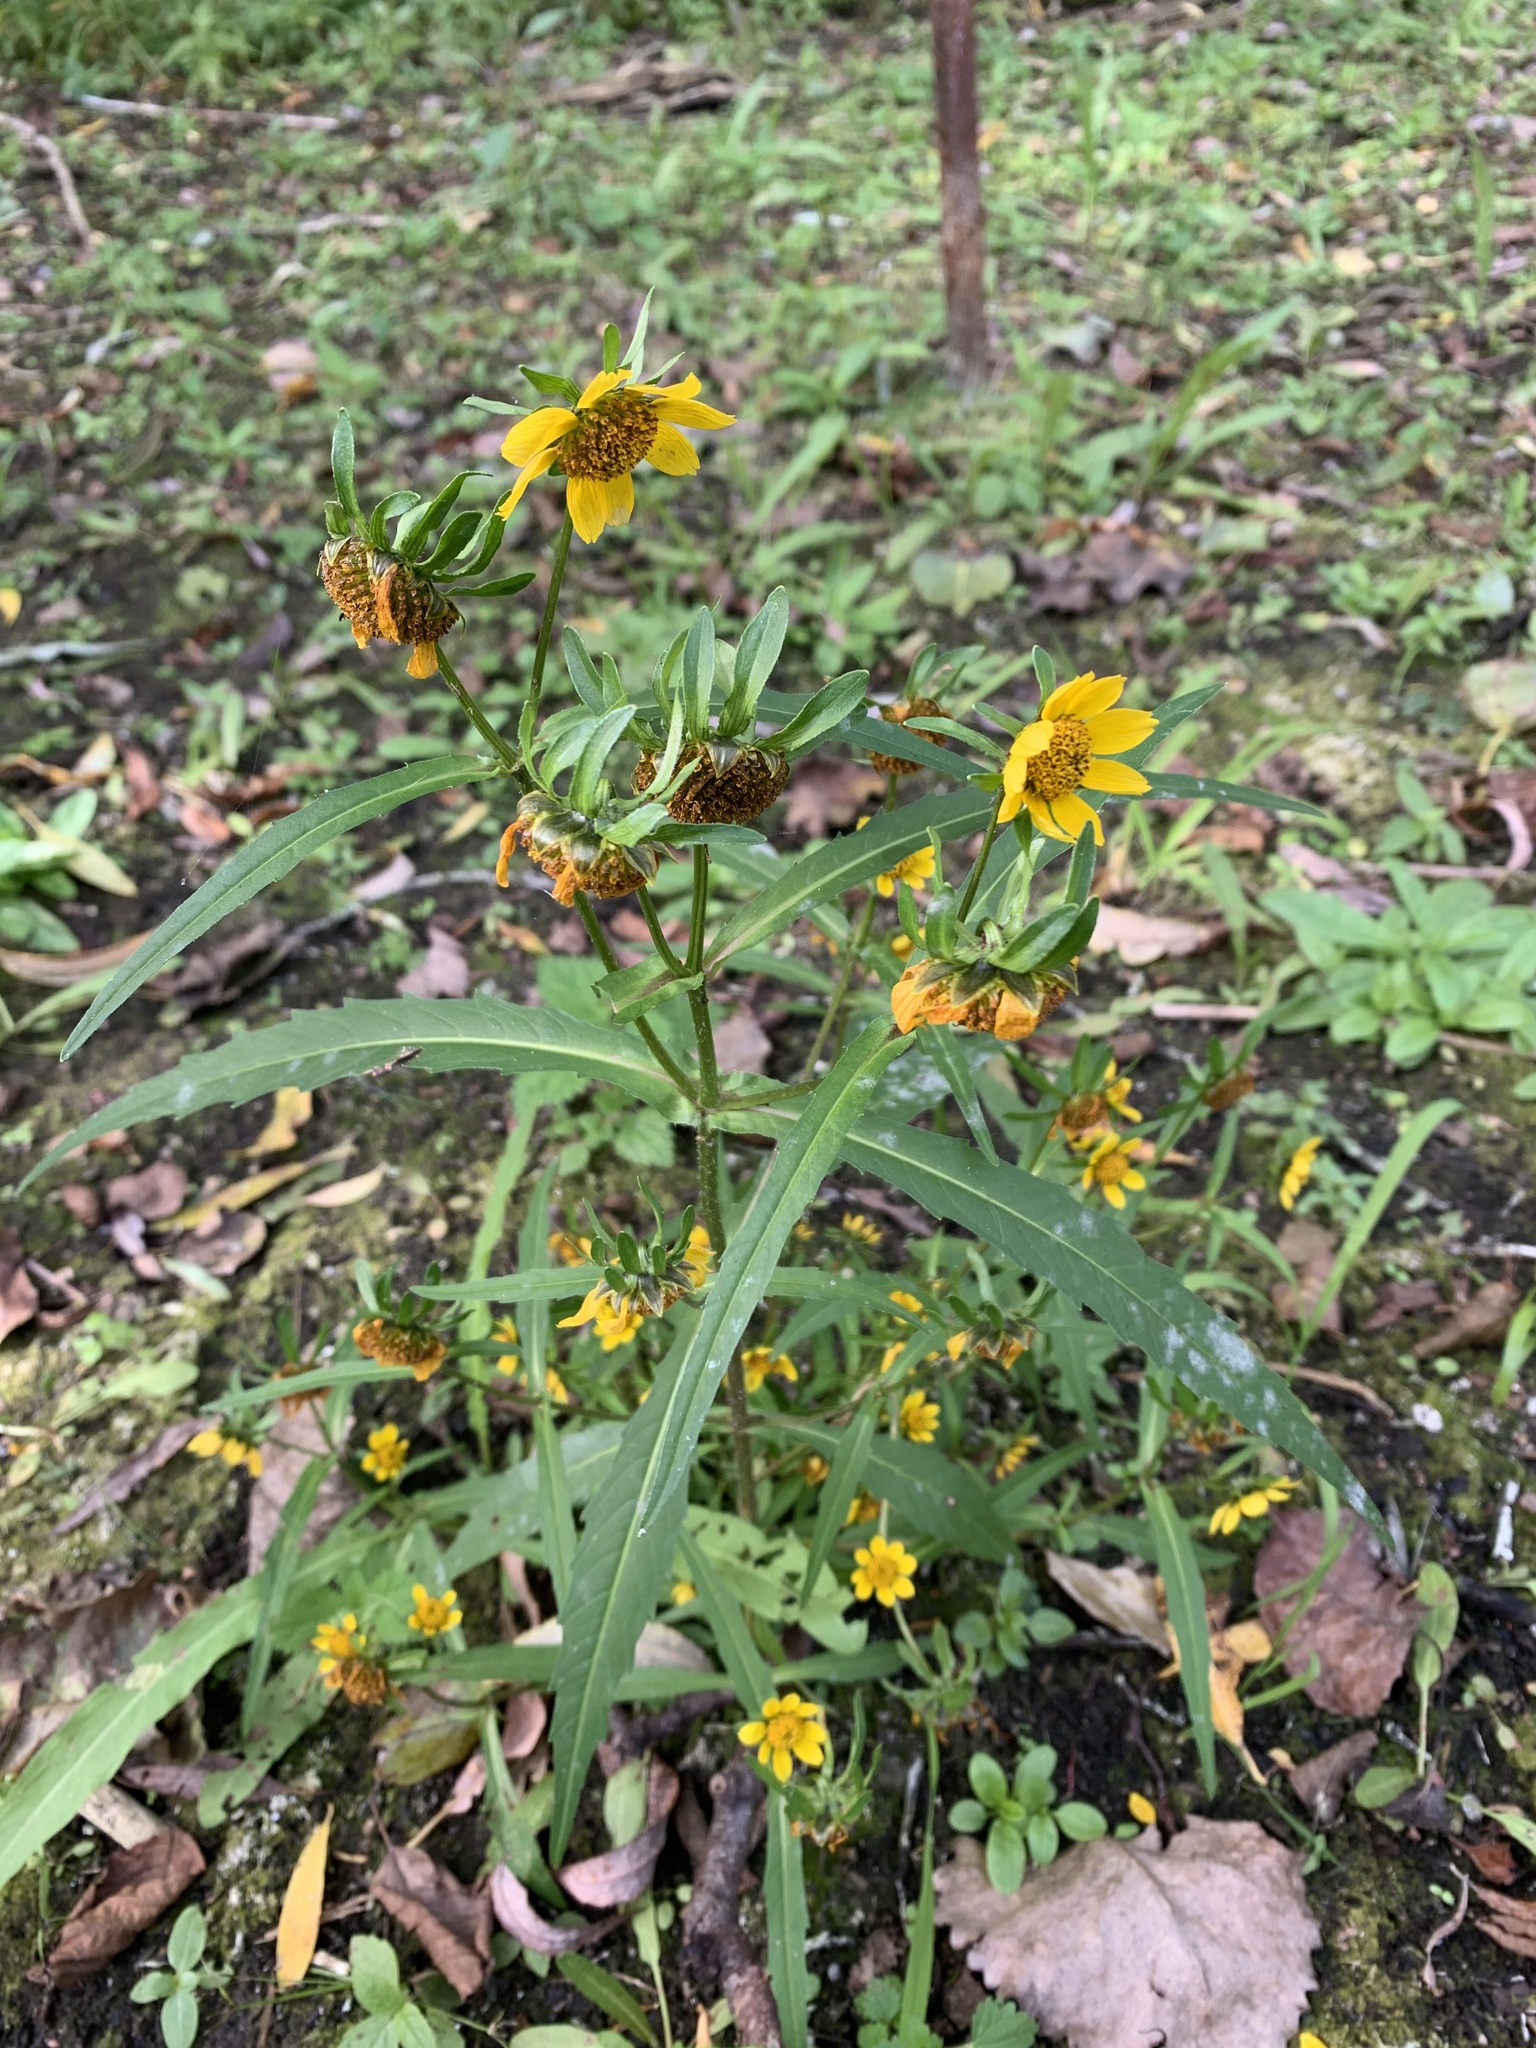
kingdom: Plantae
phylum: Tracheophyta
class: Magnoliopsida
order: Asterales
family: Asteraceae
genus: Bidens
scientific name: Bidens cernua
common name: Nodding bur-marigold
